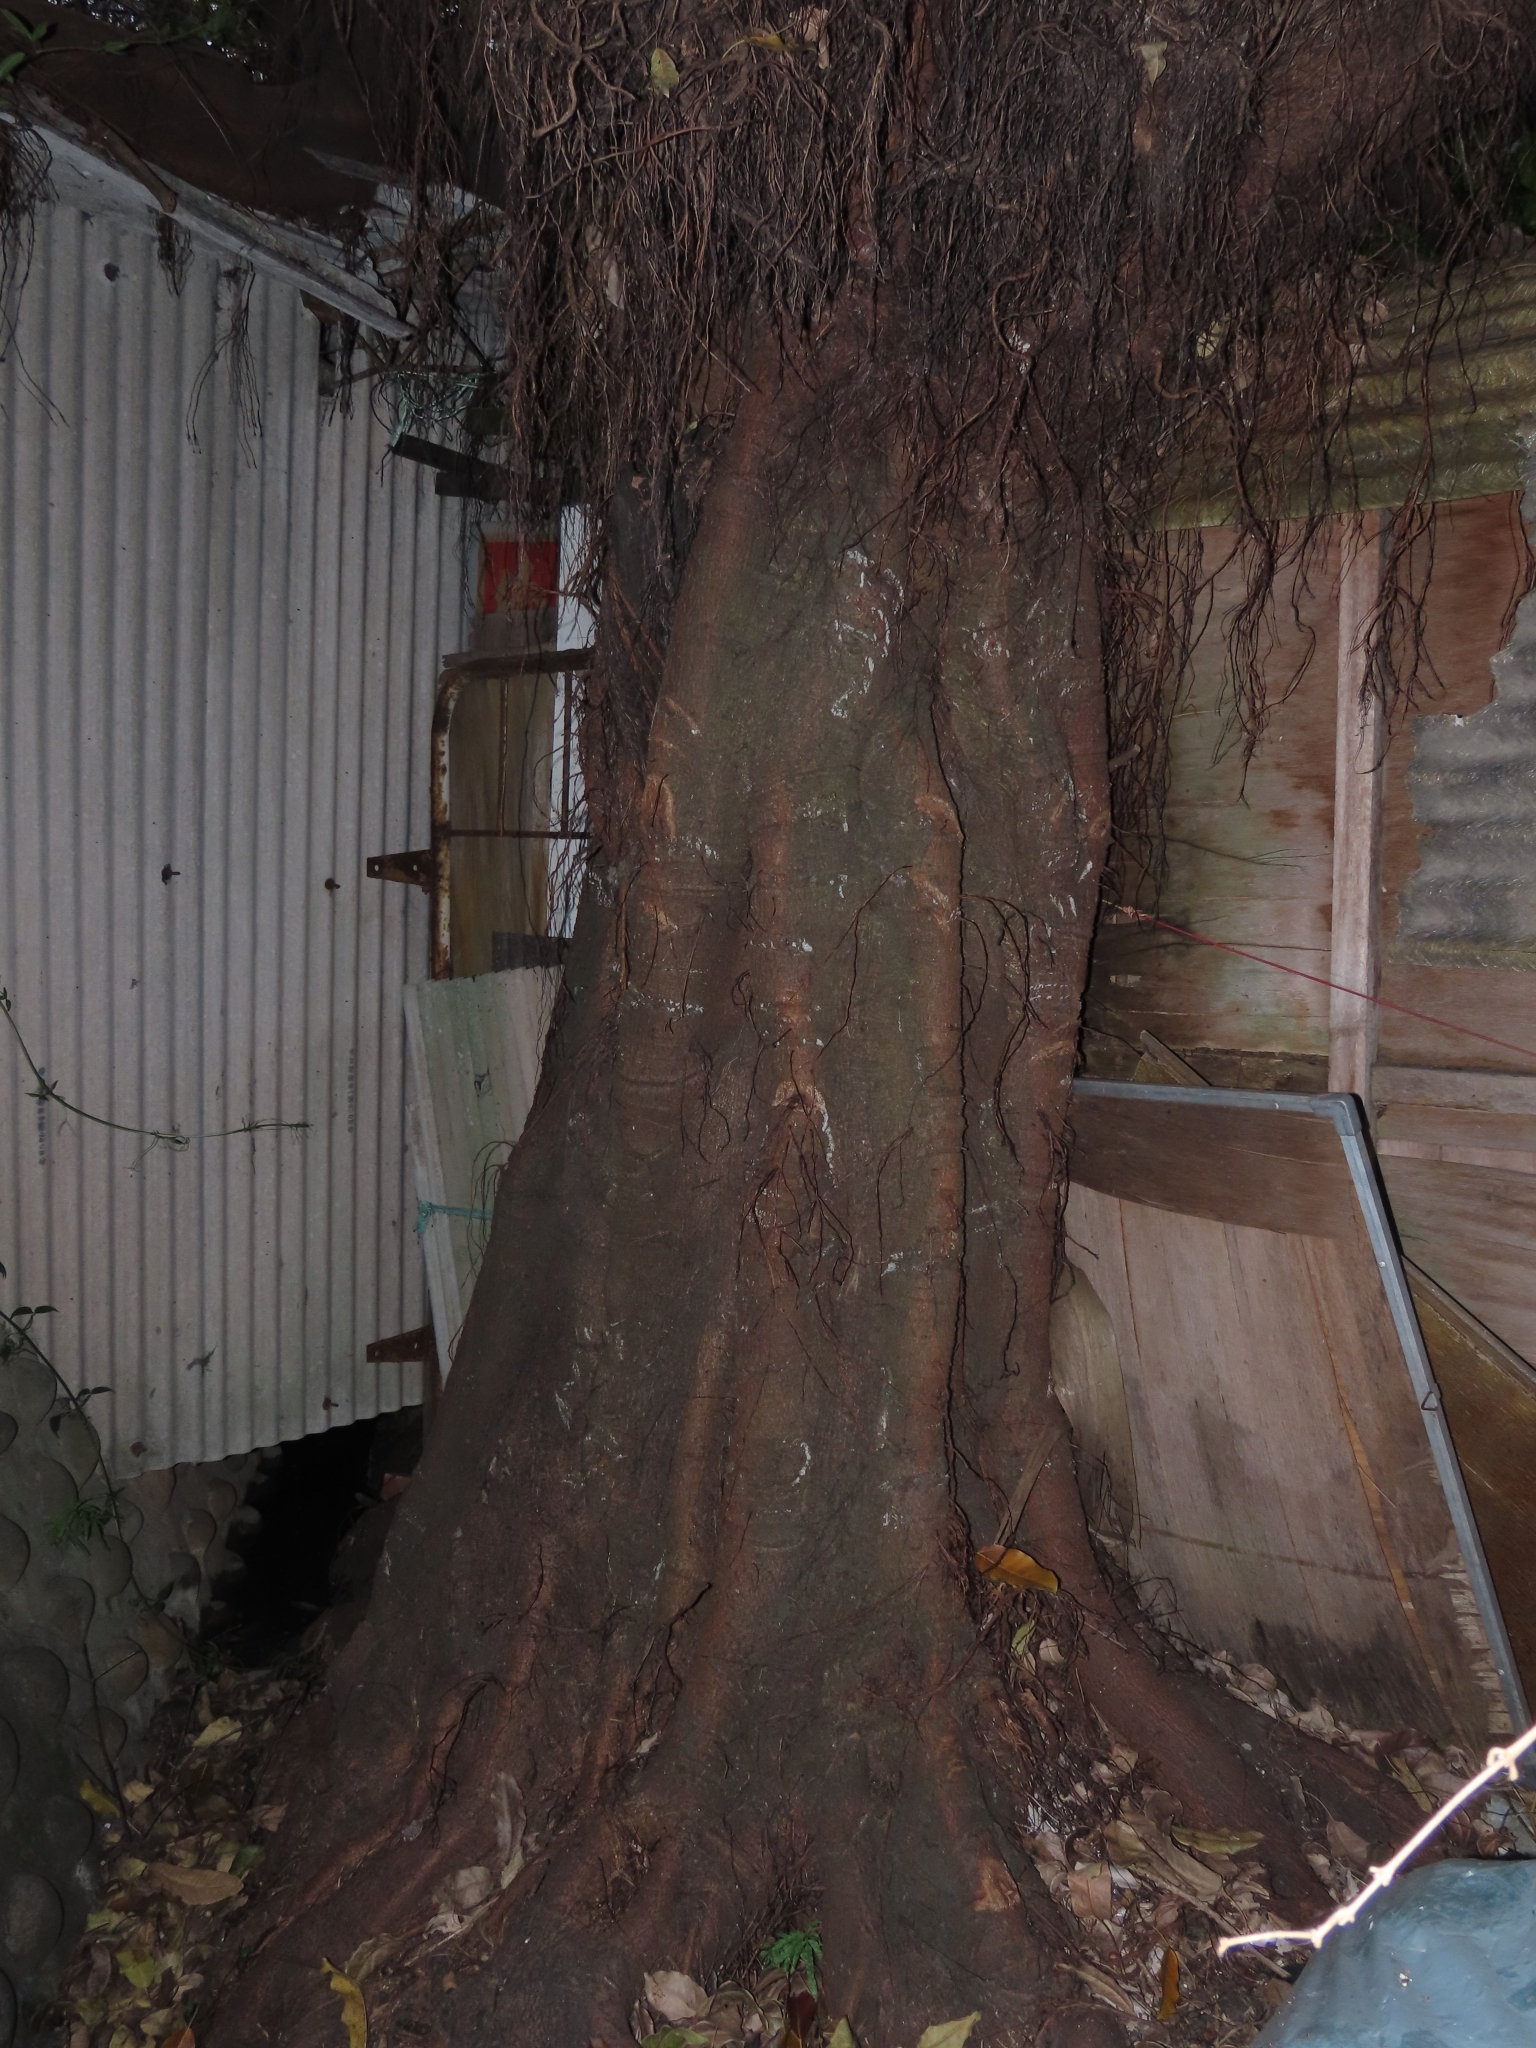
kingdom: Plantae
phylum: Tracheophyta
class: Magnoliopsida
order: Rosales
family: Moraceae
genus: Ficus
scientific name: Ficus subpisocarpa
